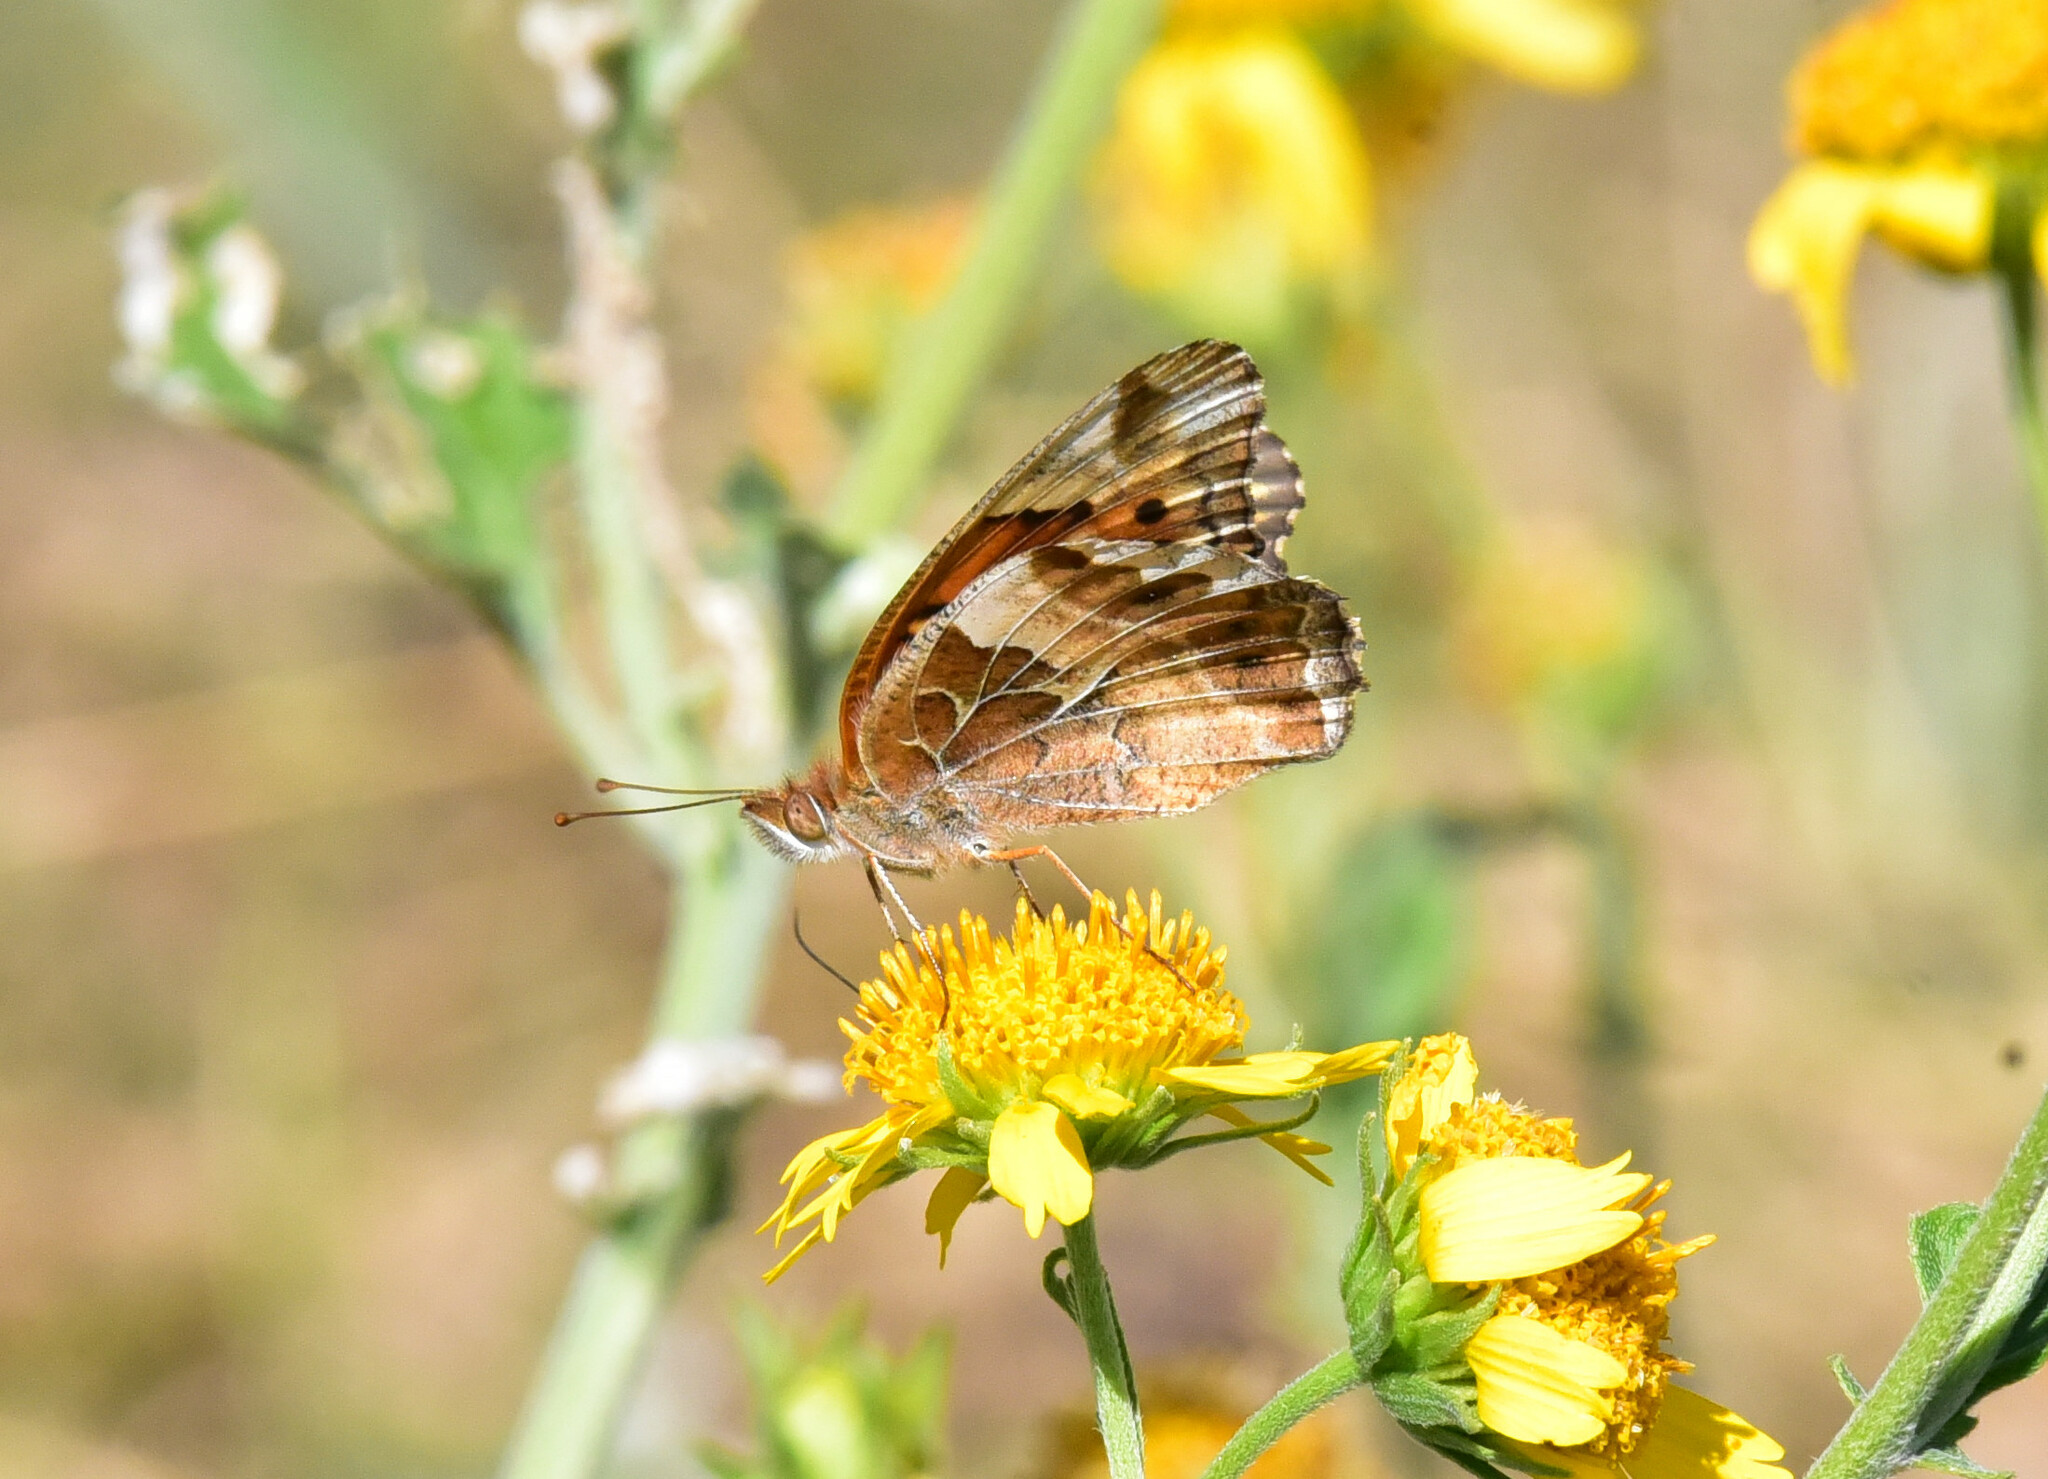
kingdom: Animalia
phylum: Arthropoda
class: Insecta
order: Lepidoptera
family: Nymphalidae
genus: Euptoieta
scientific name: Euptoieta claudia
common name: Variegated fritillary
